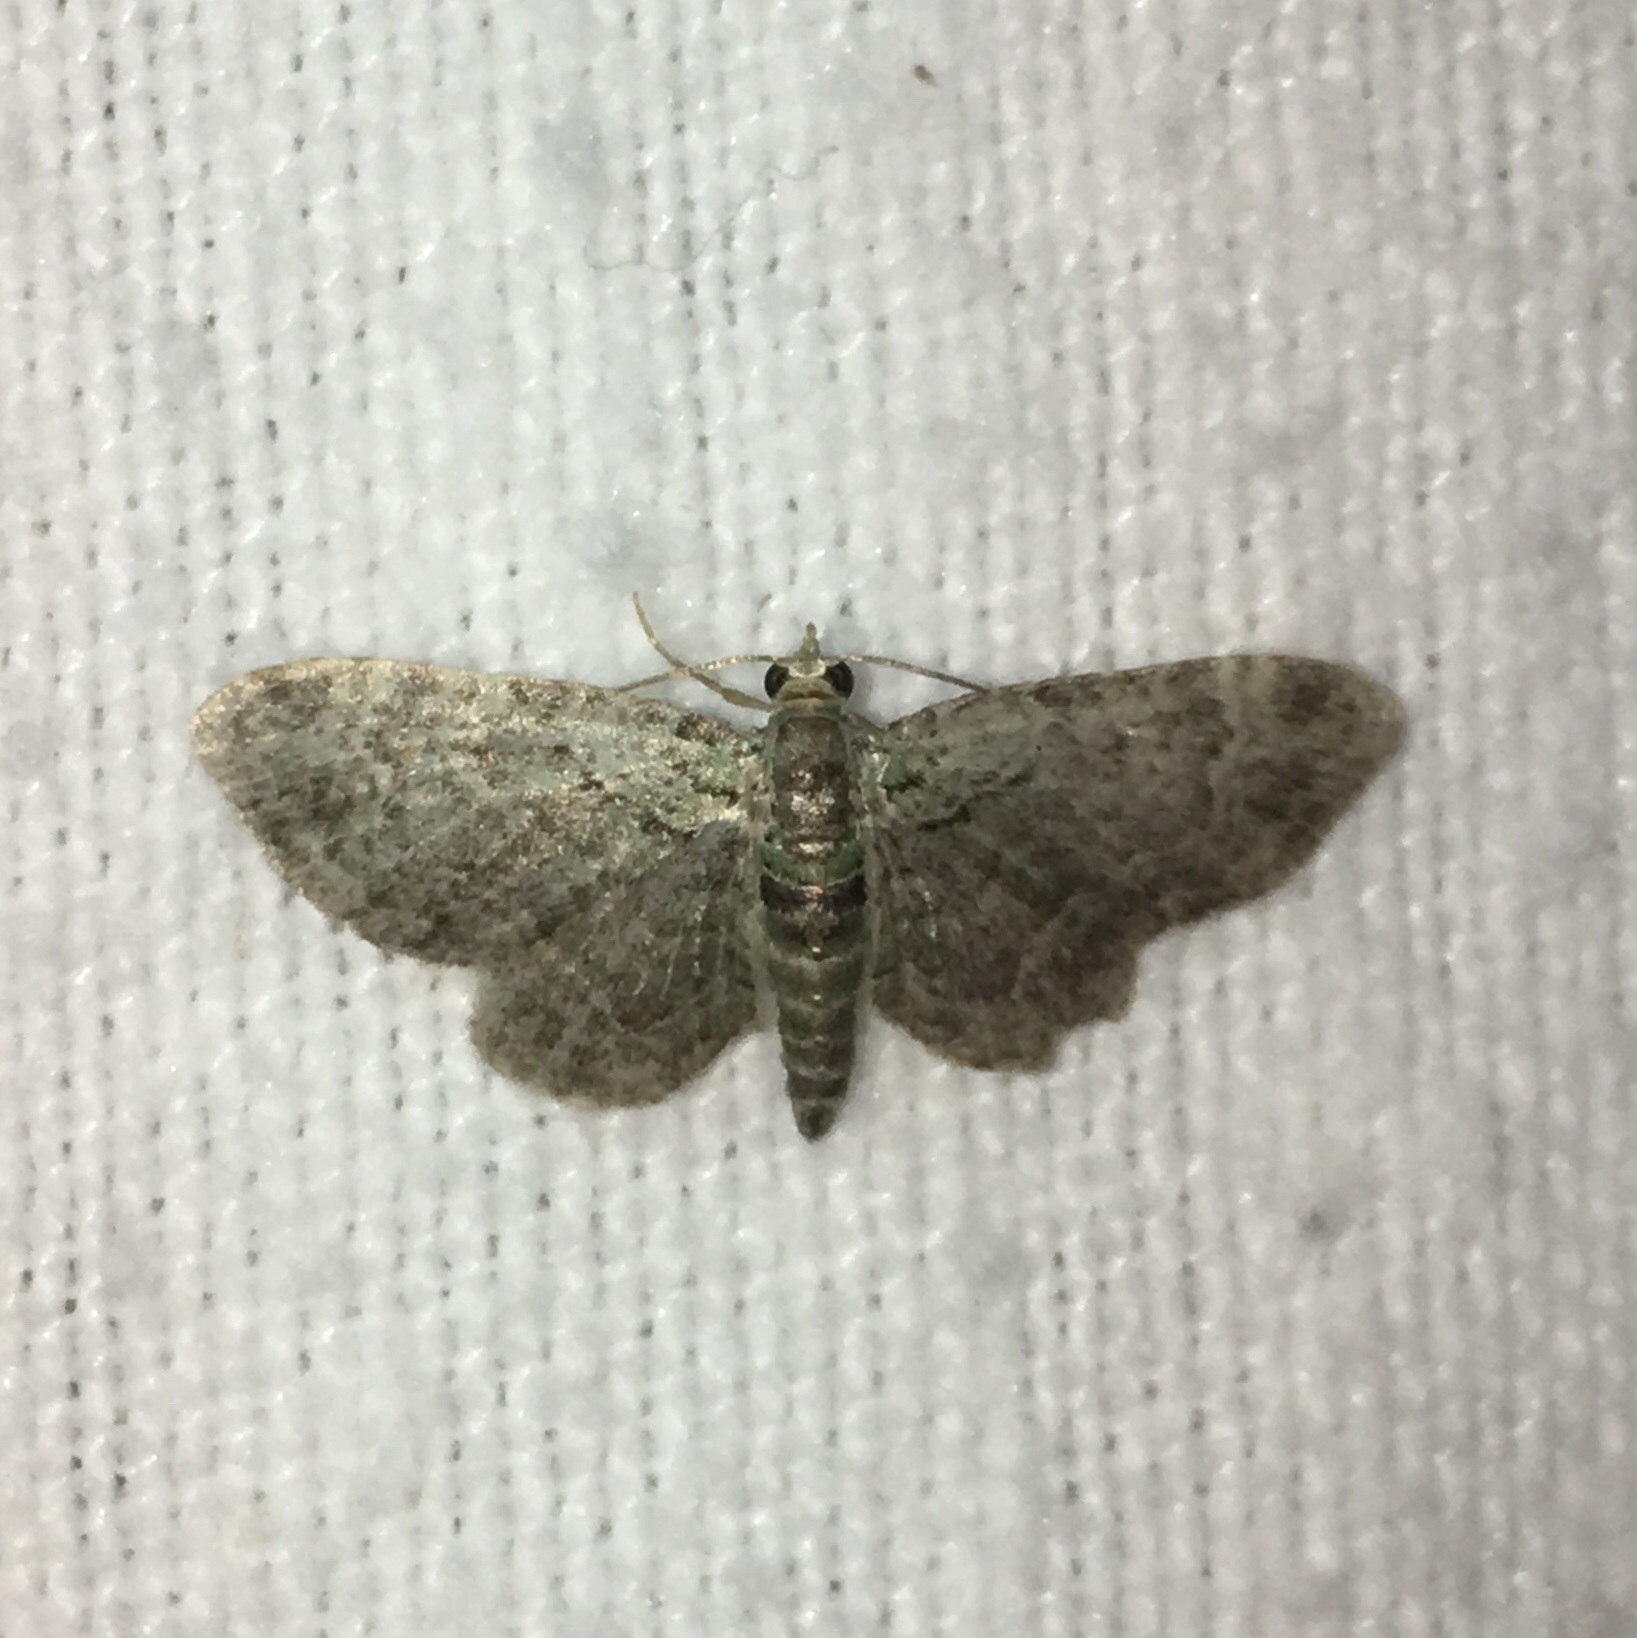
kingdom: Animalia
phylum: Arthropoda
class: Insecta
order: Lepidoptera
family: Geometridae
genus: Pasiphila
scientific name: Pasiphila rectangulata
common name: Green pug
